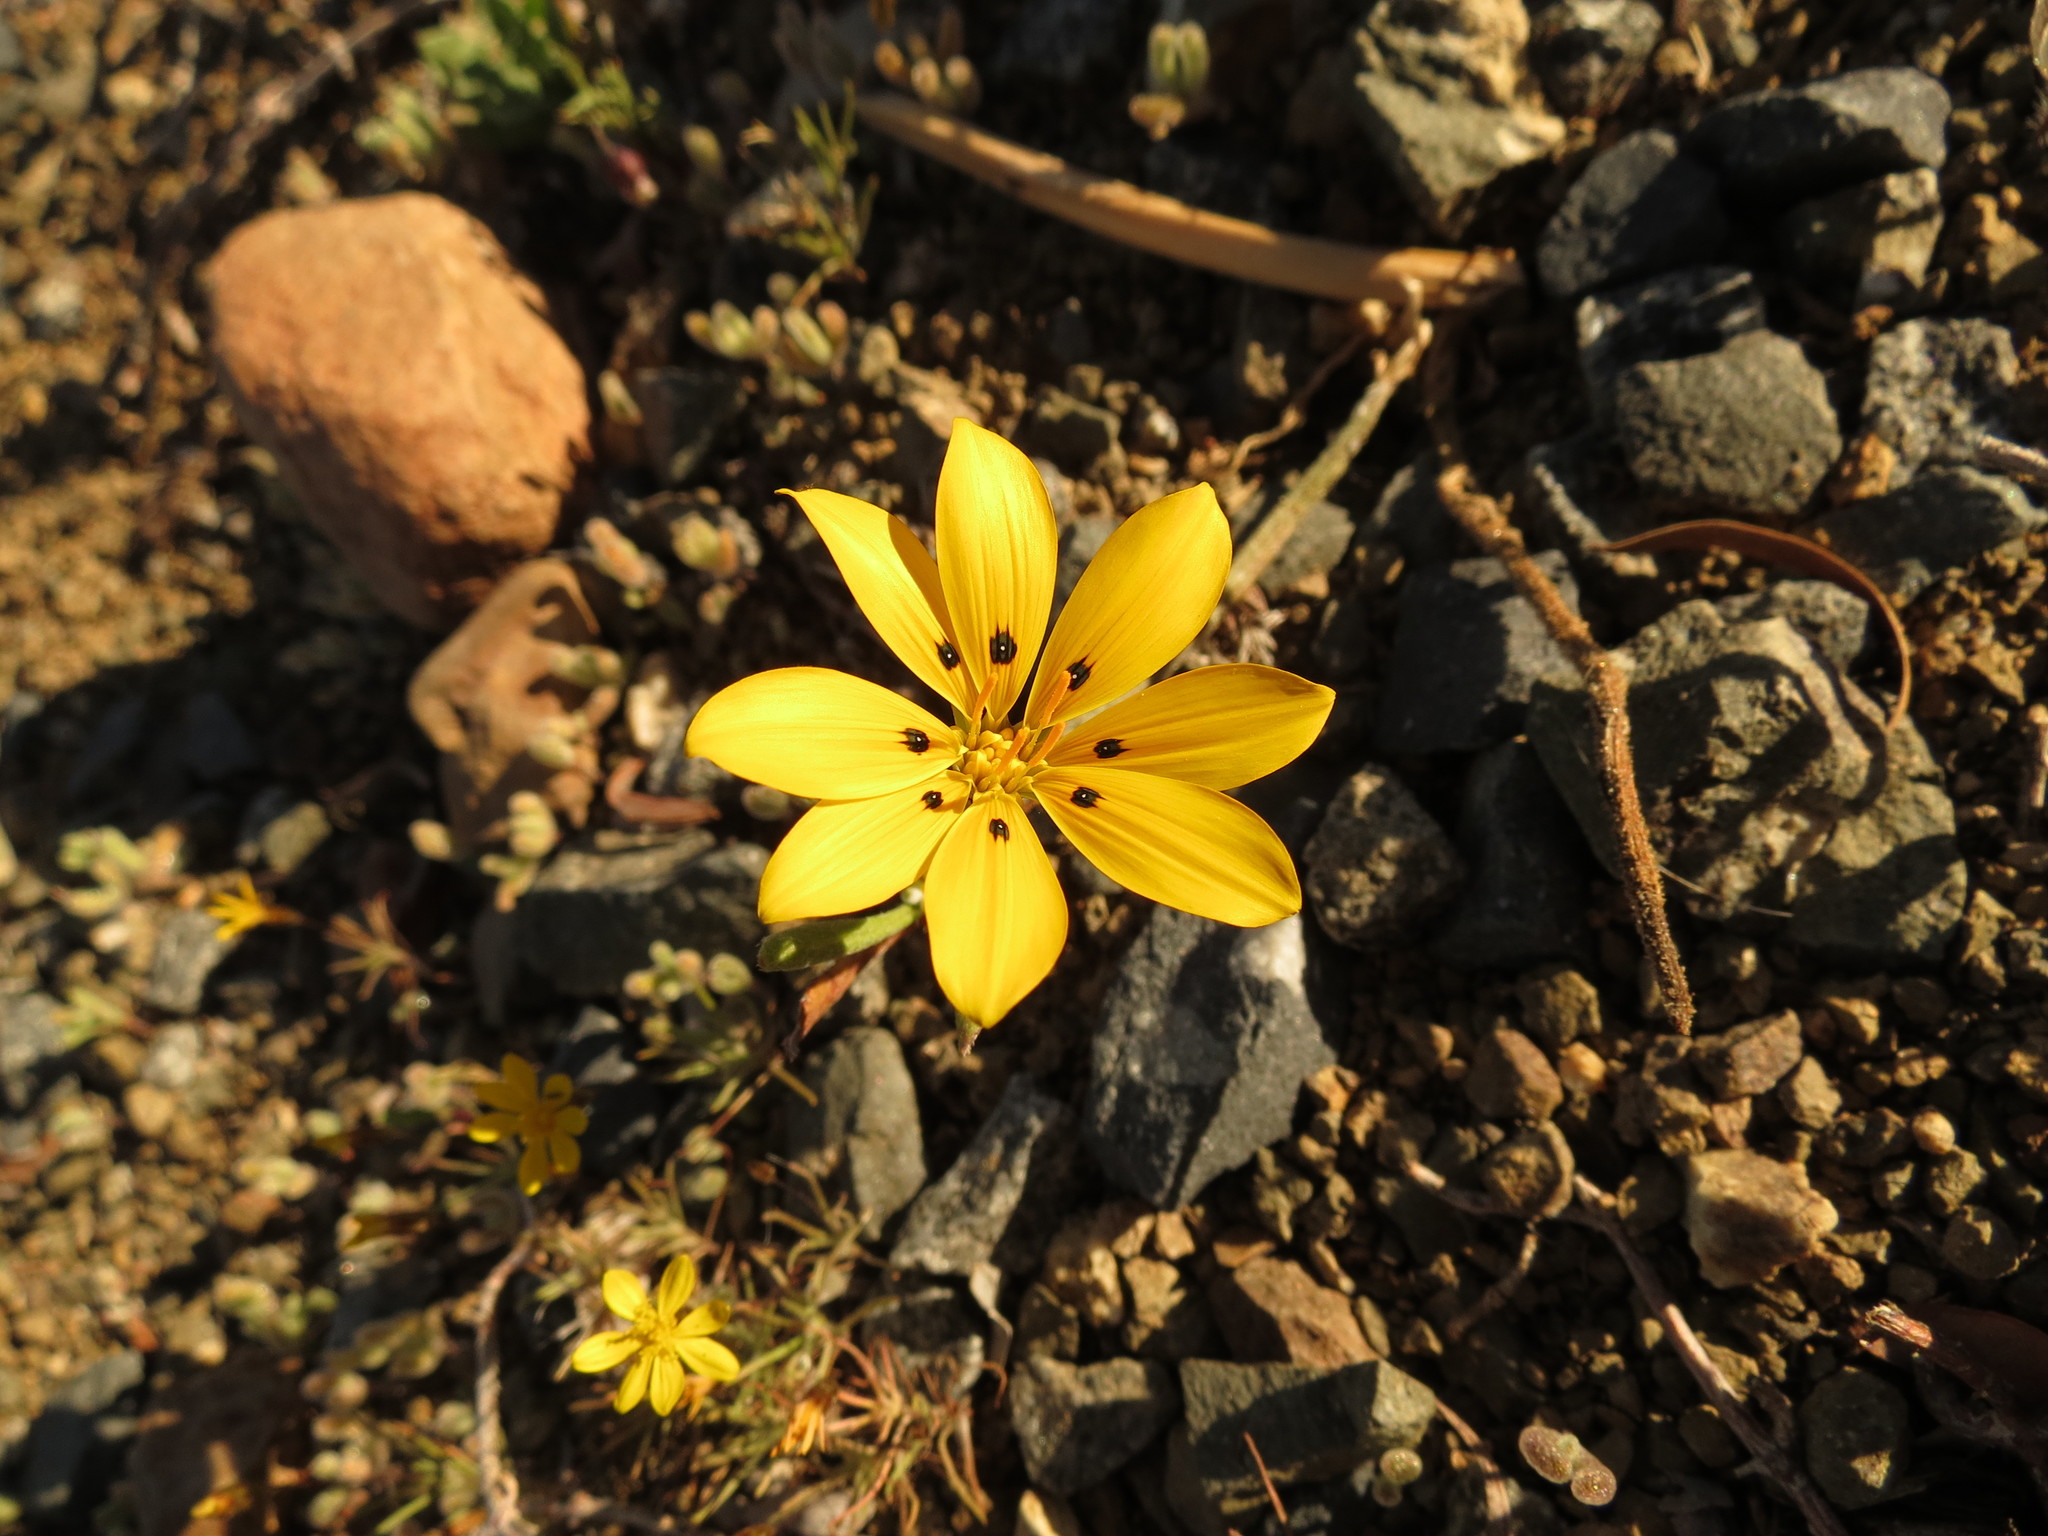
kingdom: Plantae
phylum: Tracheophyta
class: Magnoliopsida
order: Asterales
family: Asteraceae
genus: Gazania
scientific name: Gazania lichtensteinii
